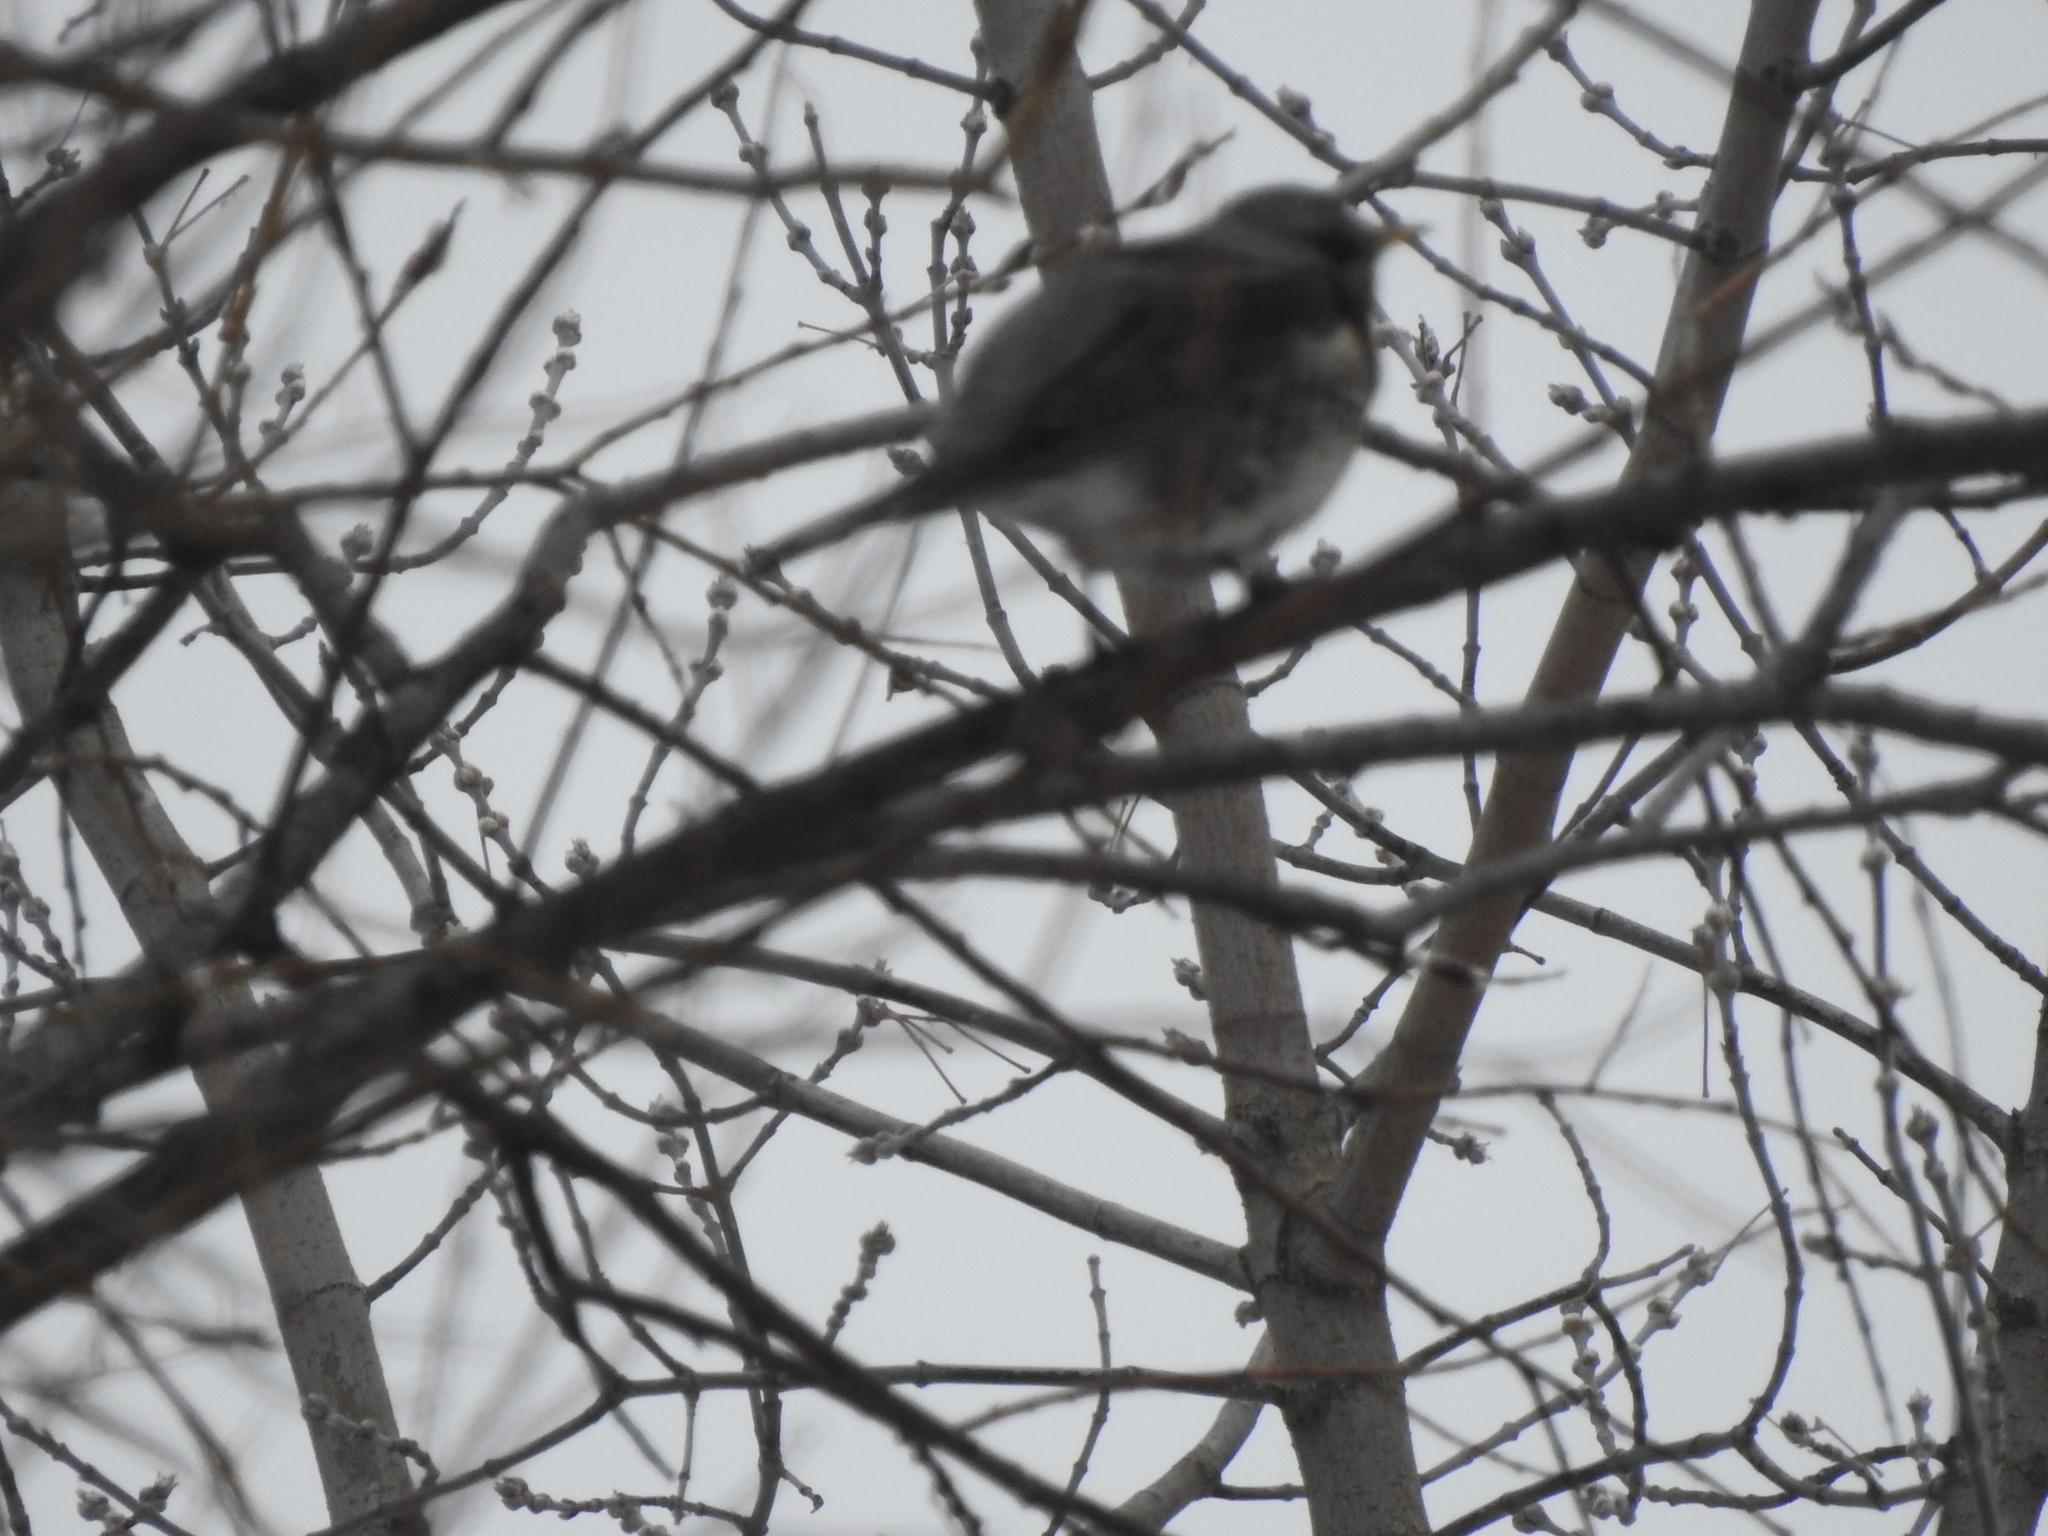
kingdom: Animalia
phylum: Chordata
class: Aves
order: Passeriformes
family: Turdidae
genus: Turdus
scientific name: Turdus pilaris
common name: Fieldfare
